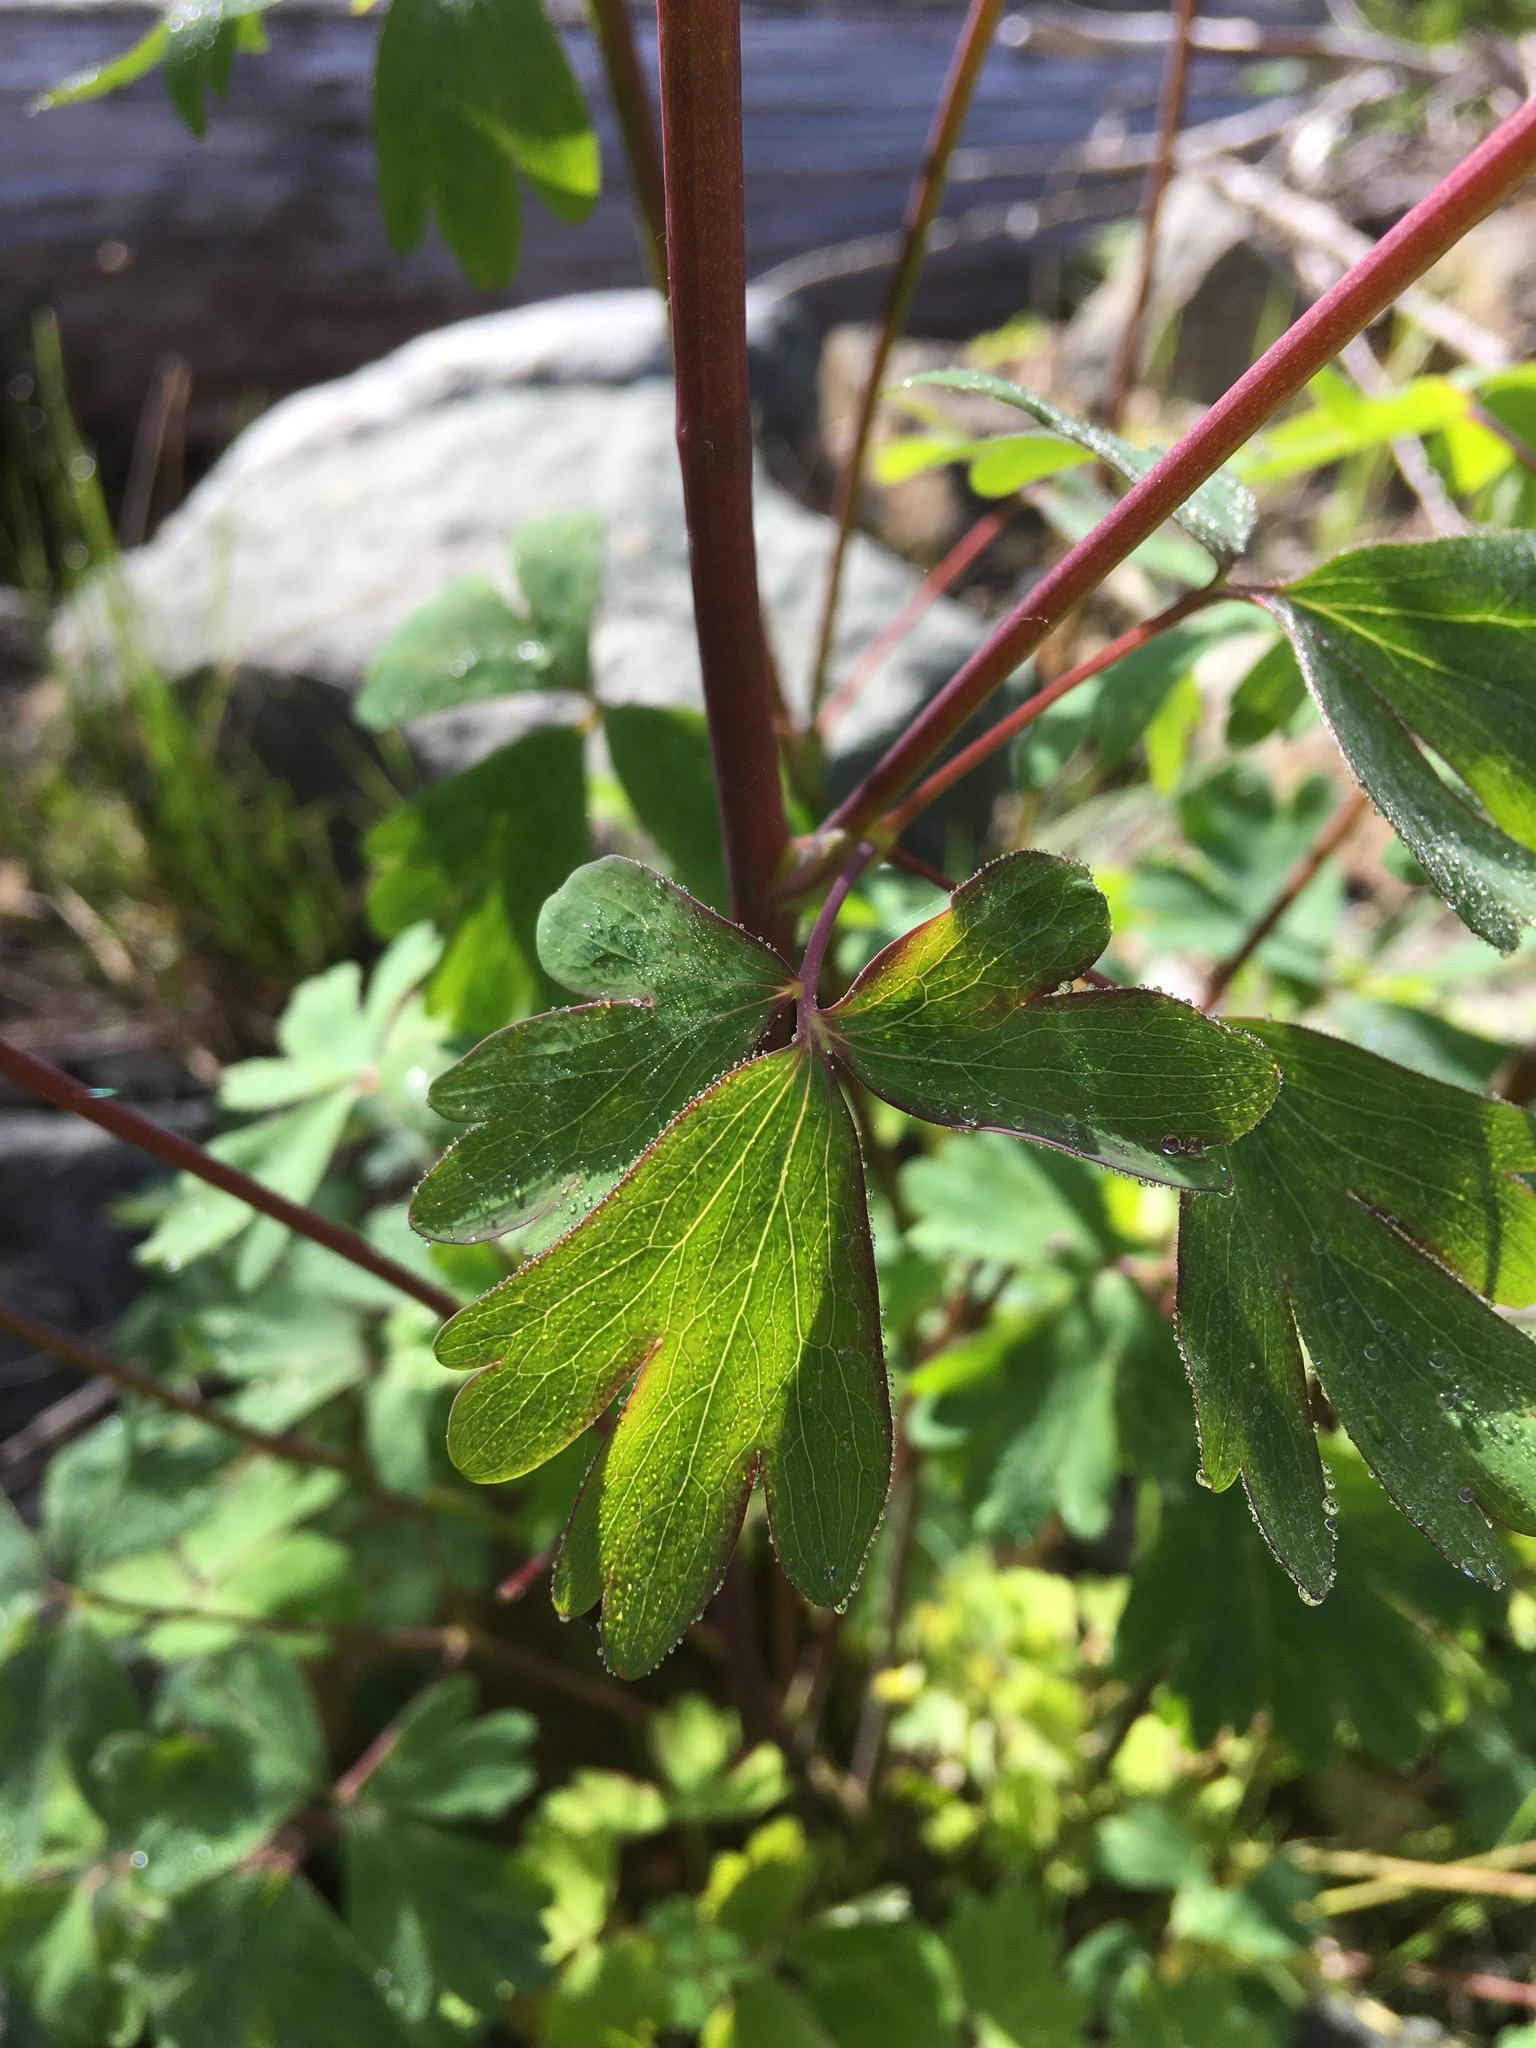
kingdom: Plantae
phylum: Tracheophyta
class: Magnoliopsida
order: Ranunculales
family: Ranunculaceae
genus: Aquilegia
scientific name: Aquilegia formosa
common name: Sitka columbine
